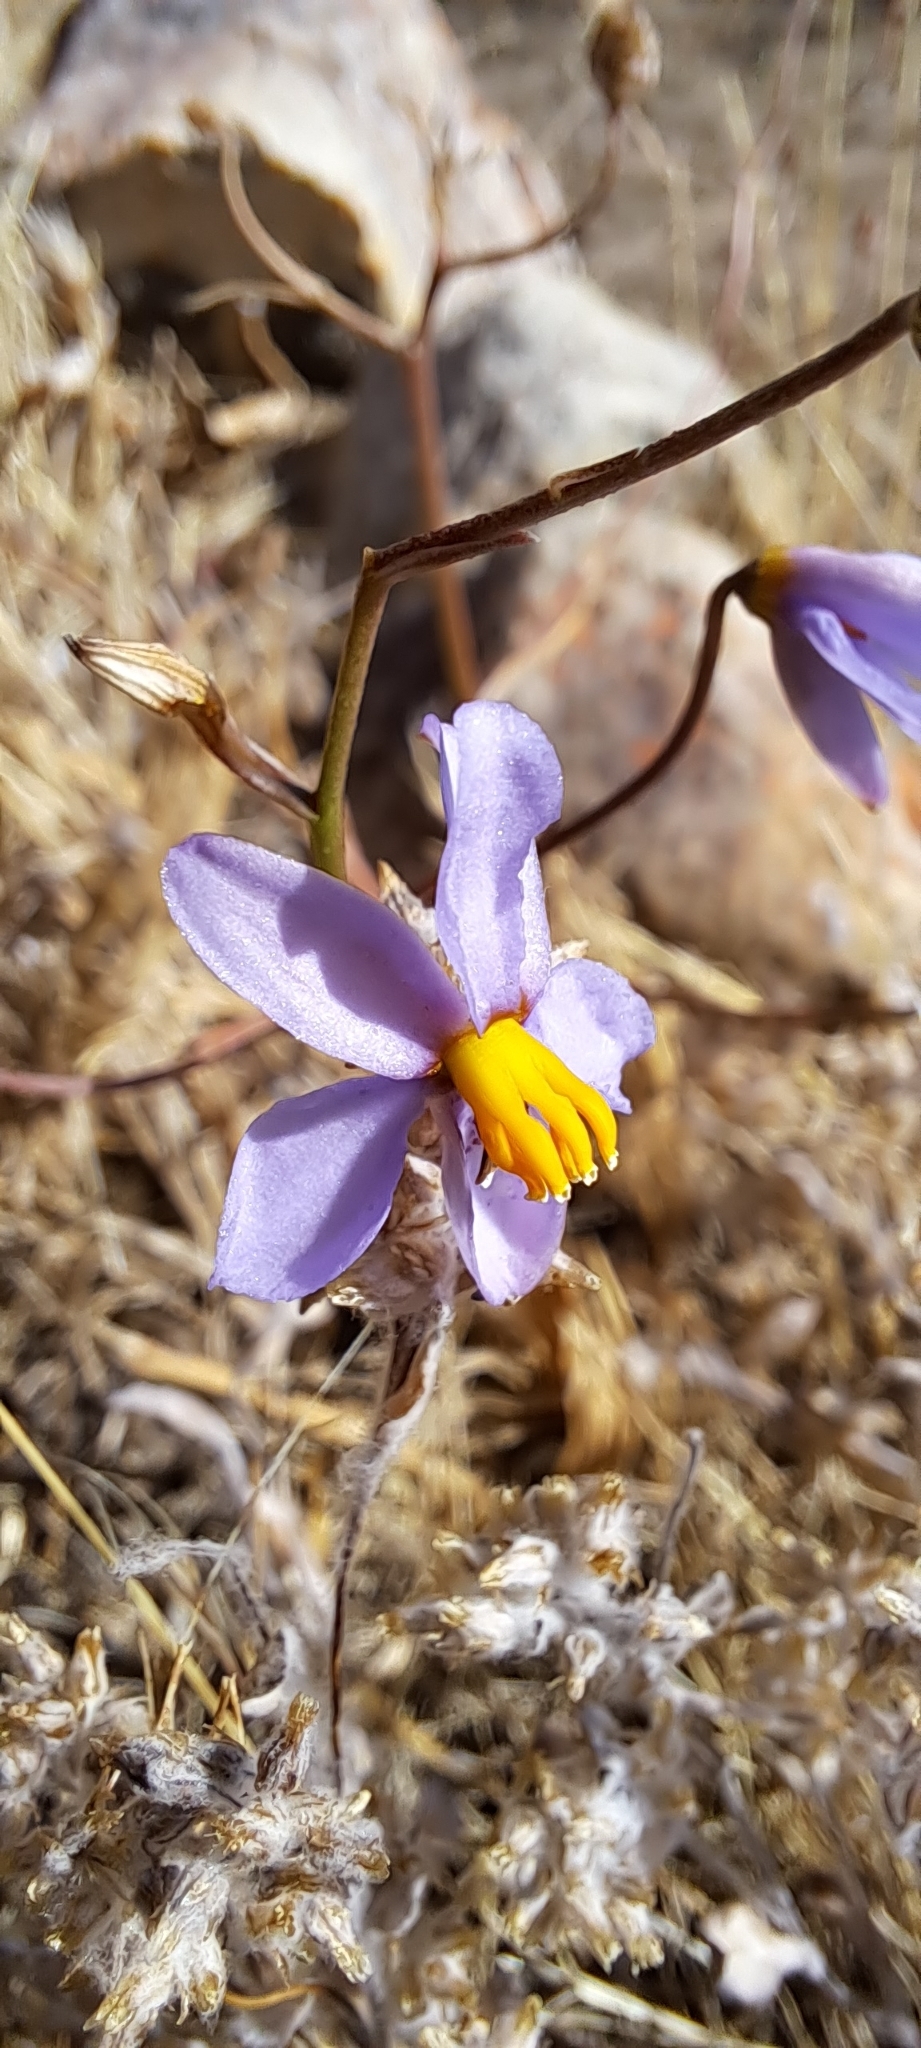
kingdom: Plantae
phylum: Tracheophyta
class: Liliopsida
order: Asparagales
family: Tecophilaeaceae
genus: Cyanella
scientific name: Cyanella hyacinthoides
